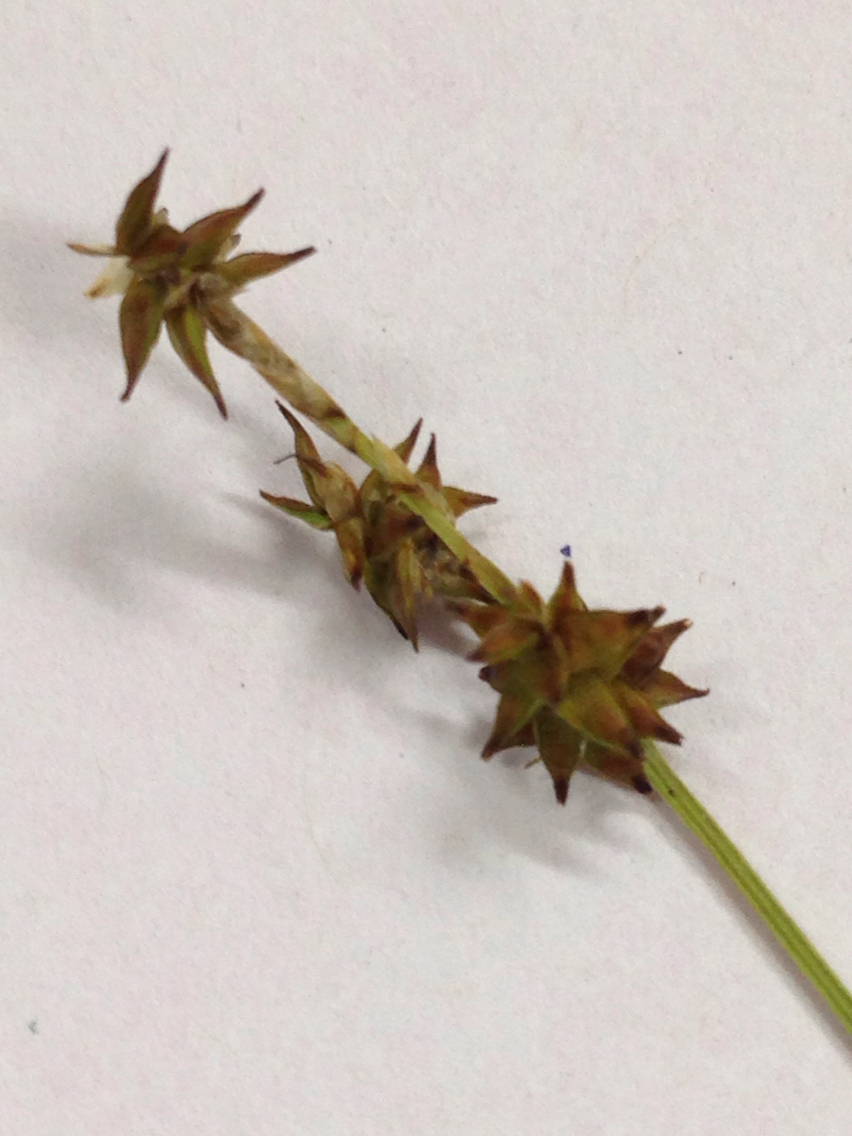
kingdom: Plantae
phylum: Tracheophyta
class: Liliopsida
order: Poales
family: Cyperaceae
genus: Carex
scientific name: Carex interior
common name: Inland sedge
